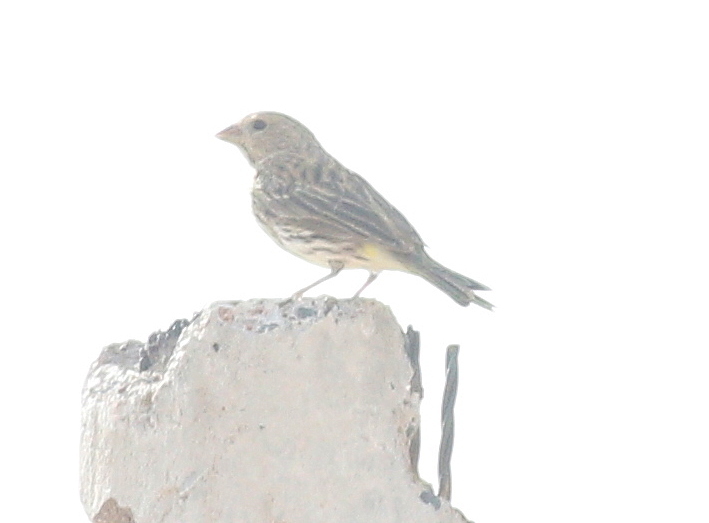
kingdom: Animalia
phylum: Chordata
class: Aves
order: Passeriformes
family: Thraupidae
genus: Sicalis
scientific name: Sicalis flaveola
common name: Saffron finch
